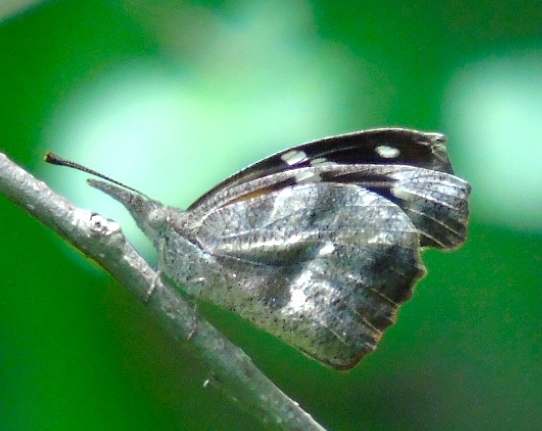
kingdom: Animalia
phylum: Arthropoda
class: Insecta
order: Lepidoptera
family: Nymphalidae
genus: Libytheana
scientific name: Libytheana carinenta
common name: American snout
